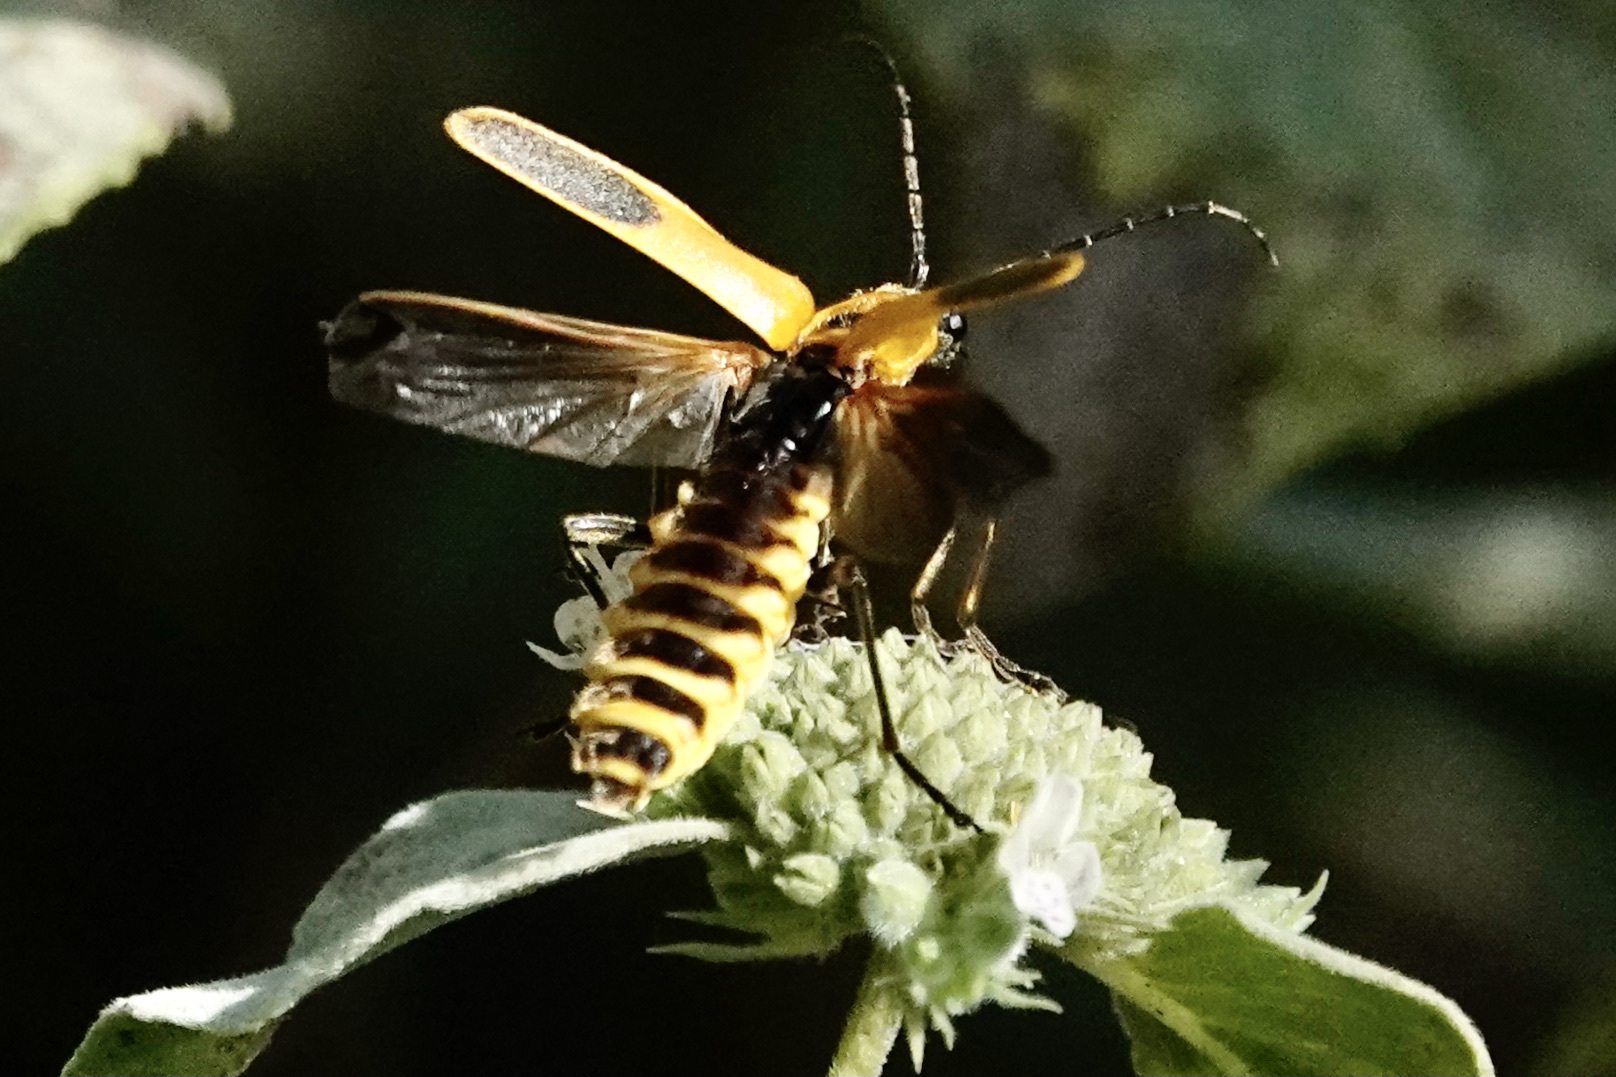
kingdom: Animalia
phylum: Arthropoda
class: Insecta
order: Coleoptera
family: Cantharidae
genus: Chauliognathus
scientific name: Chauliognathus pensylvanicus
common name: Goldenrod soldier beetle
